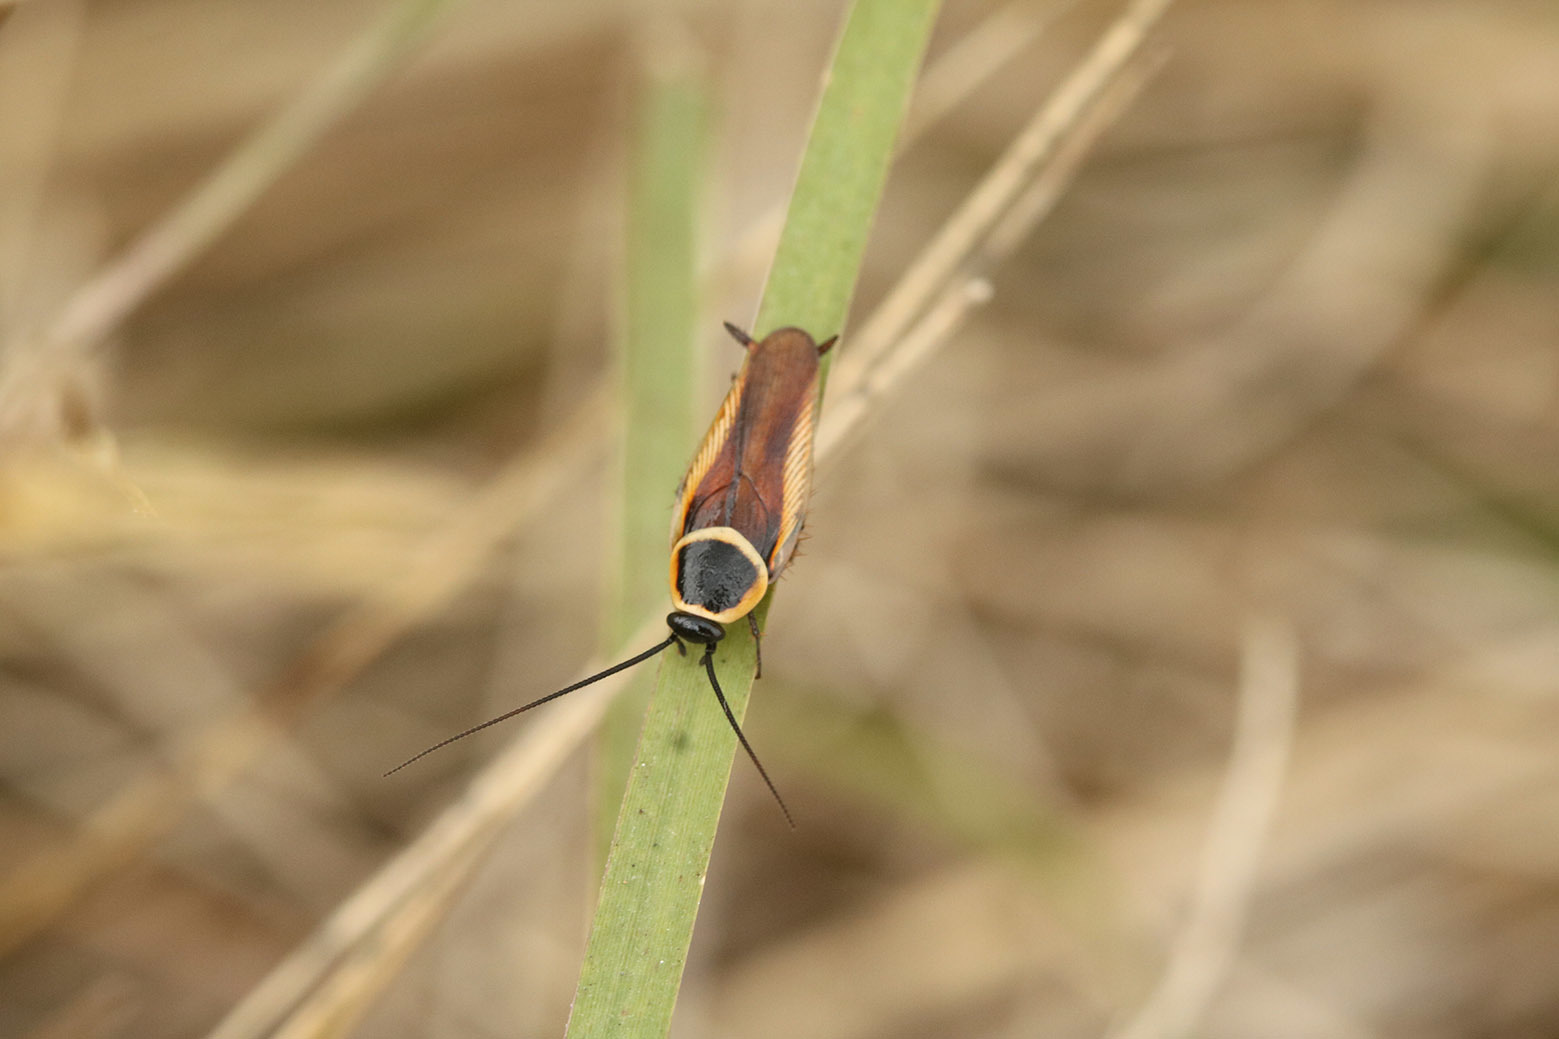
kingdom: Animalia
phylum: Arthropoda
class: Insecta
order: Blattodea
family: Ectobiidae
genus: Pseudomops
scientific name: Pseudomops neglectus
